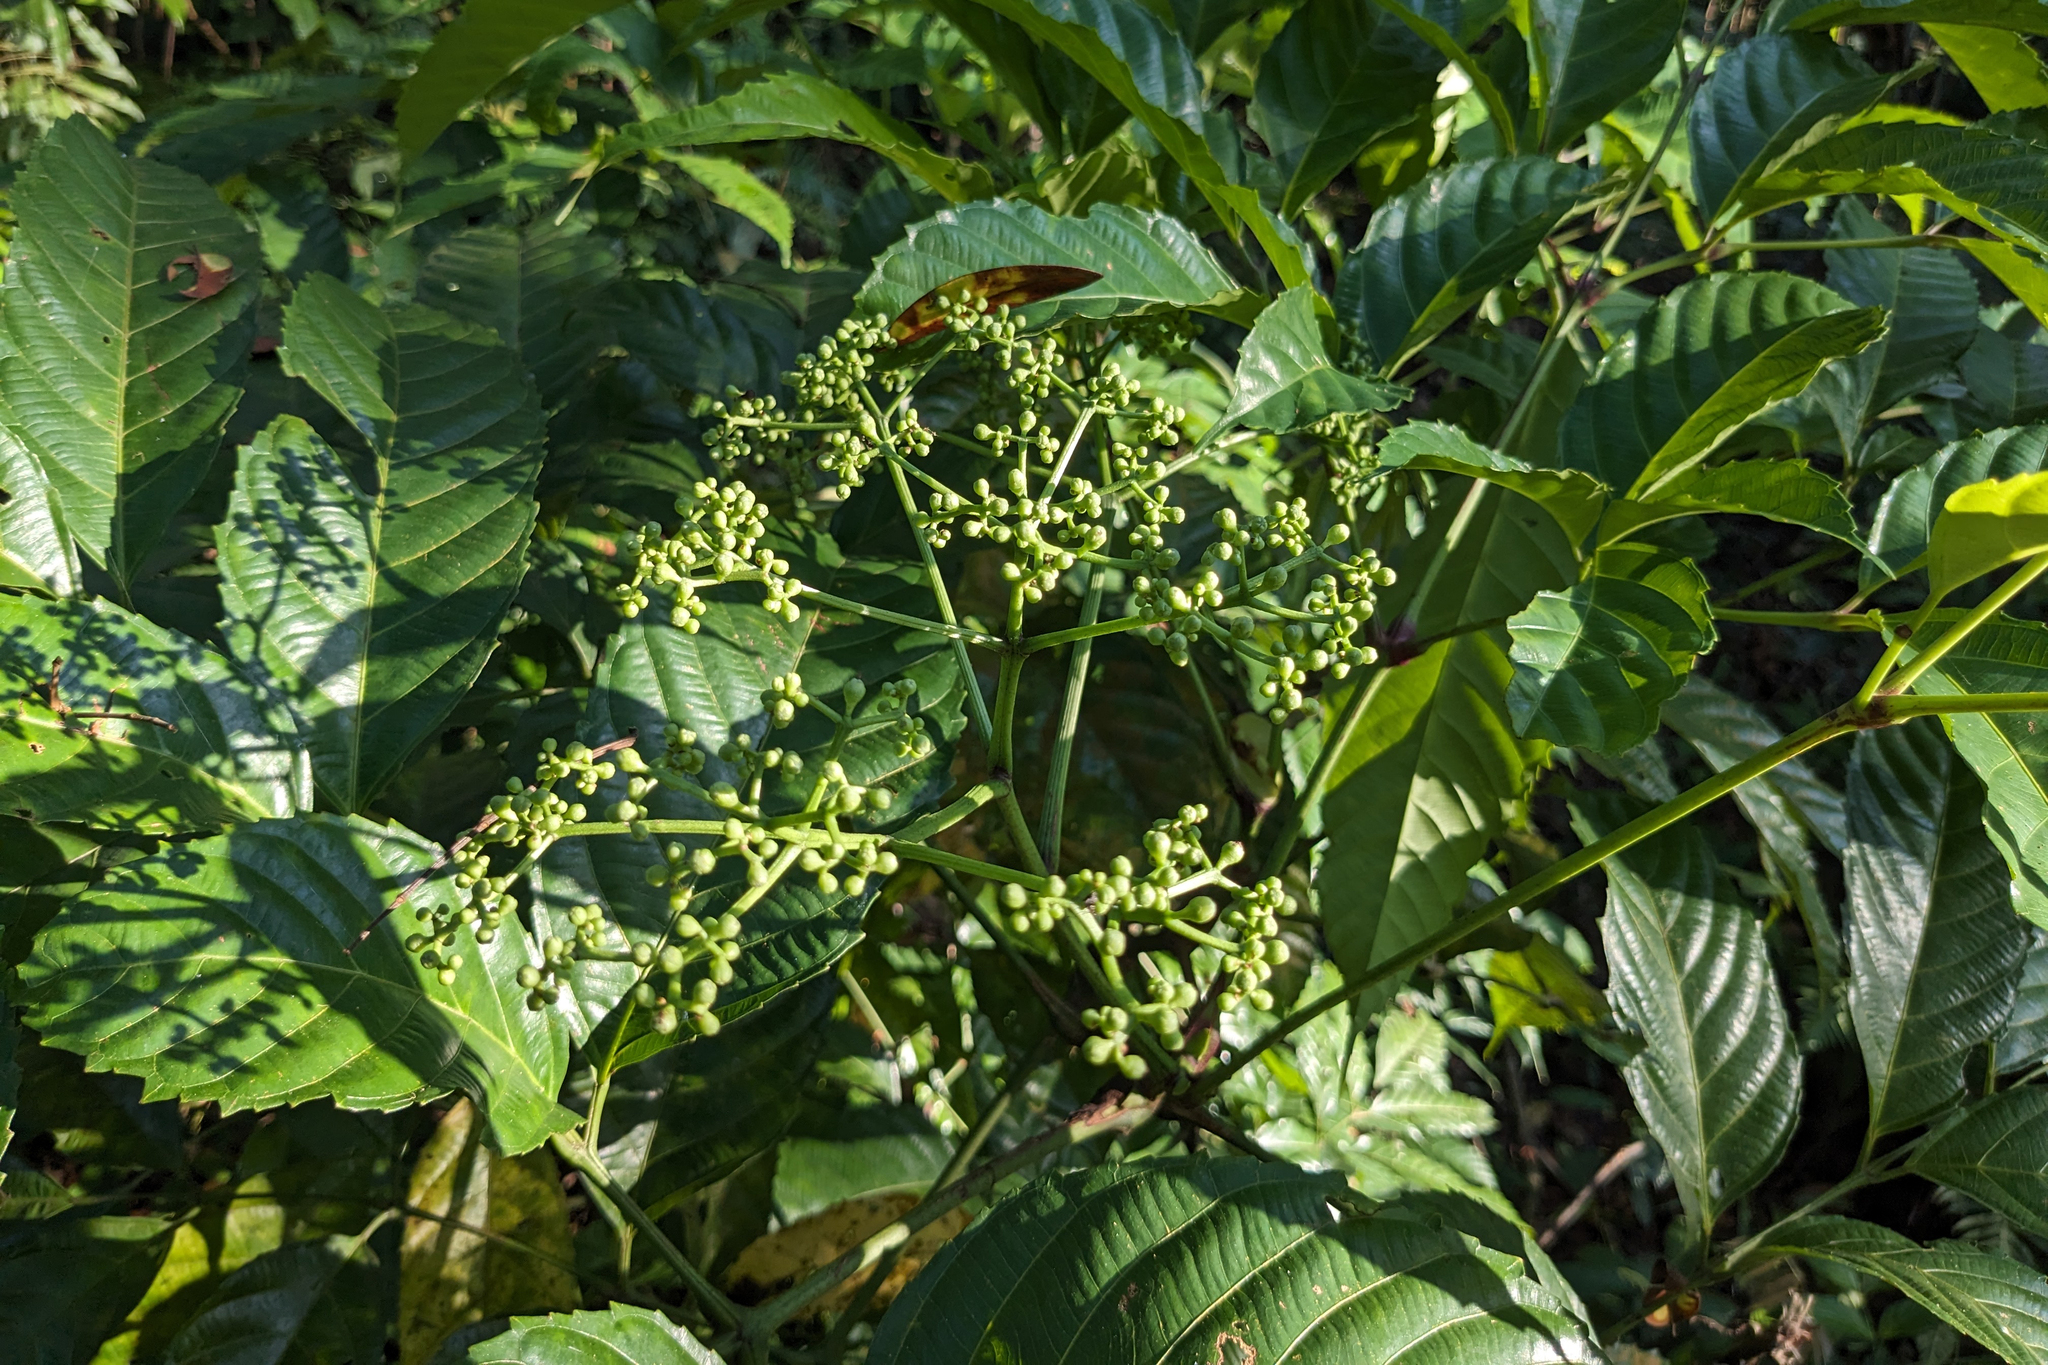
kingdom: Plantae
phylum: Tracheophyta
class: Magnoliopsida
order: Vitales
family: Vitaceae
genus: Leea
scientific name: Leea indica
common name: Bandicoot-berry
